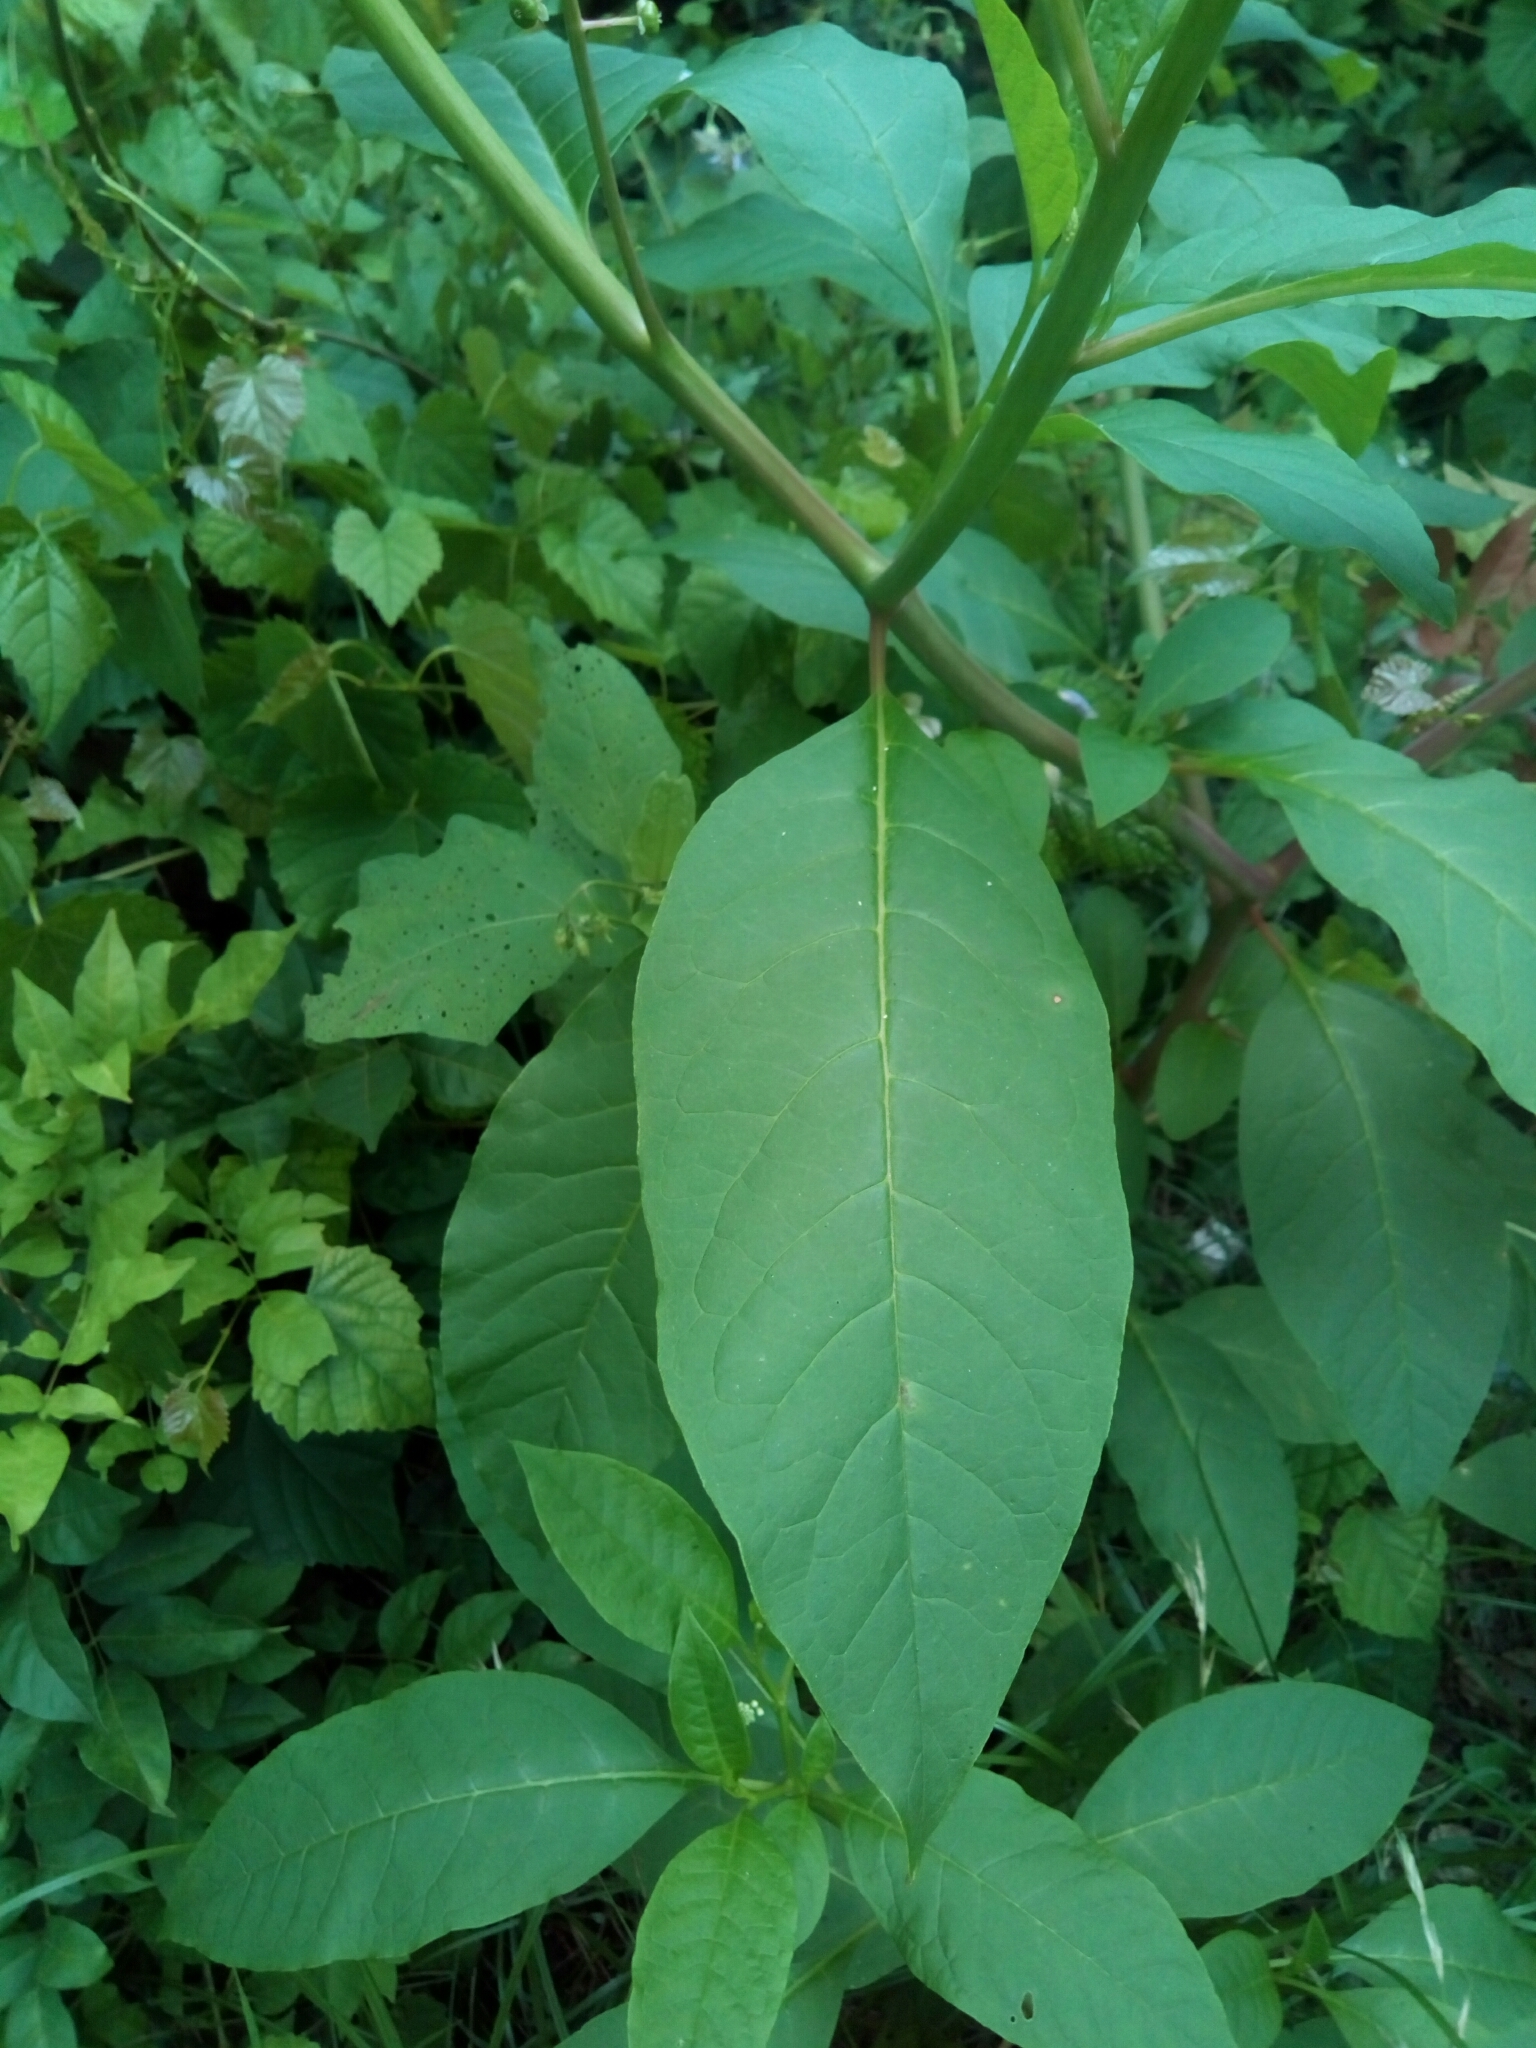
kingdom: Plantae
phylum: Tracheophyta
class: Magnoliopsida
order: Caryophyllales
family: Phytolaccaceae
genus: Phytolacca
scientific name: Phytolacca americana
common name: American pokeweed
